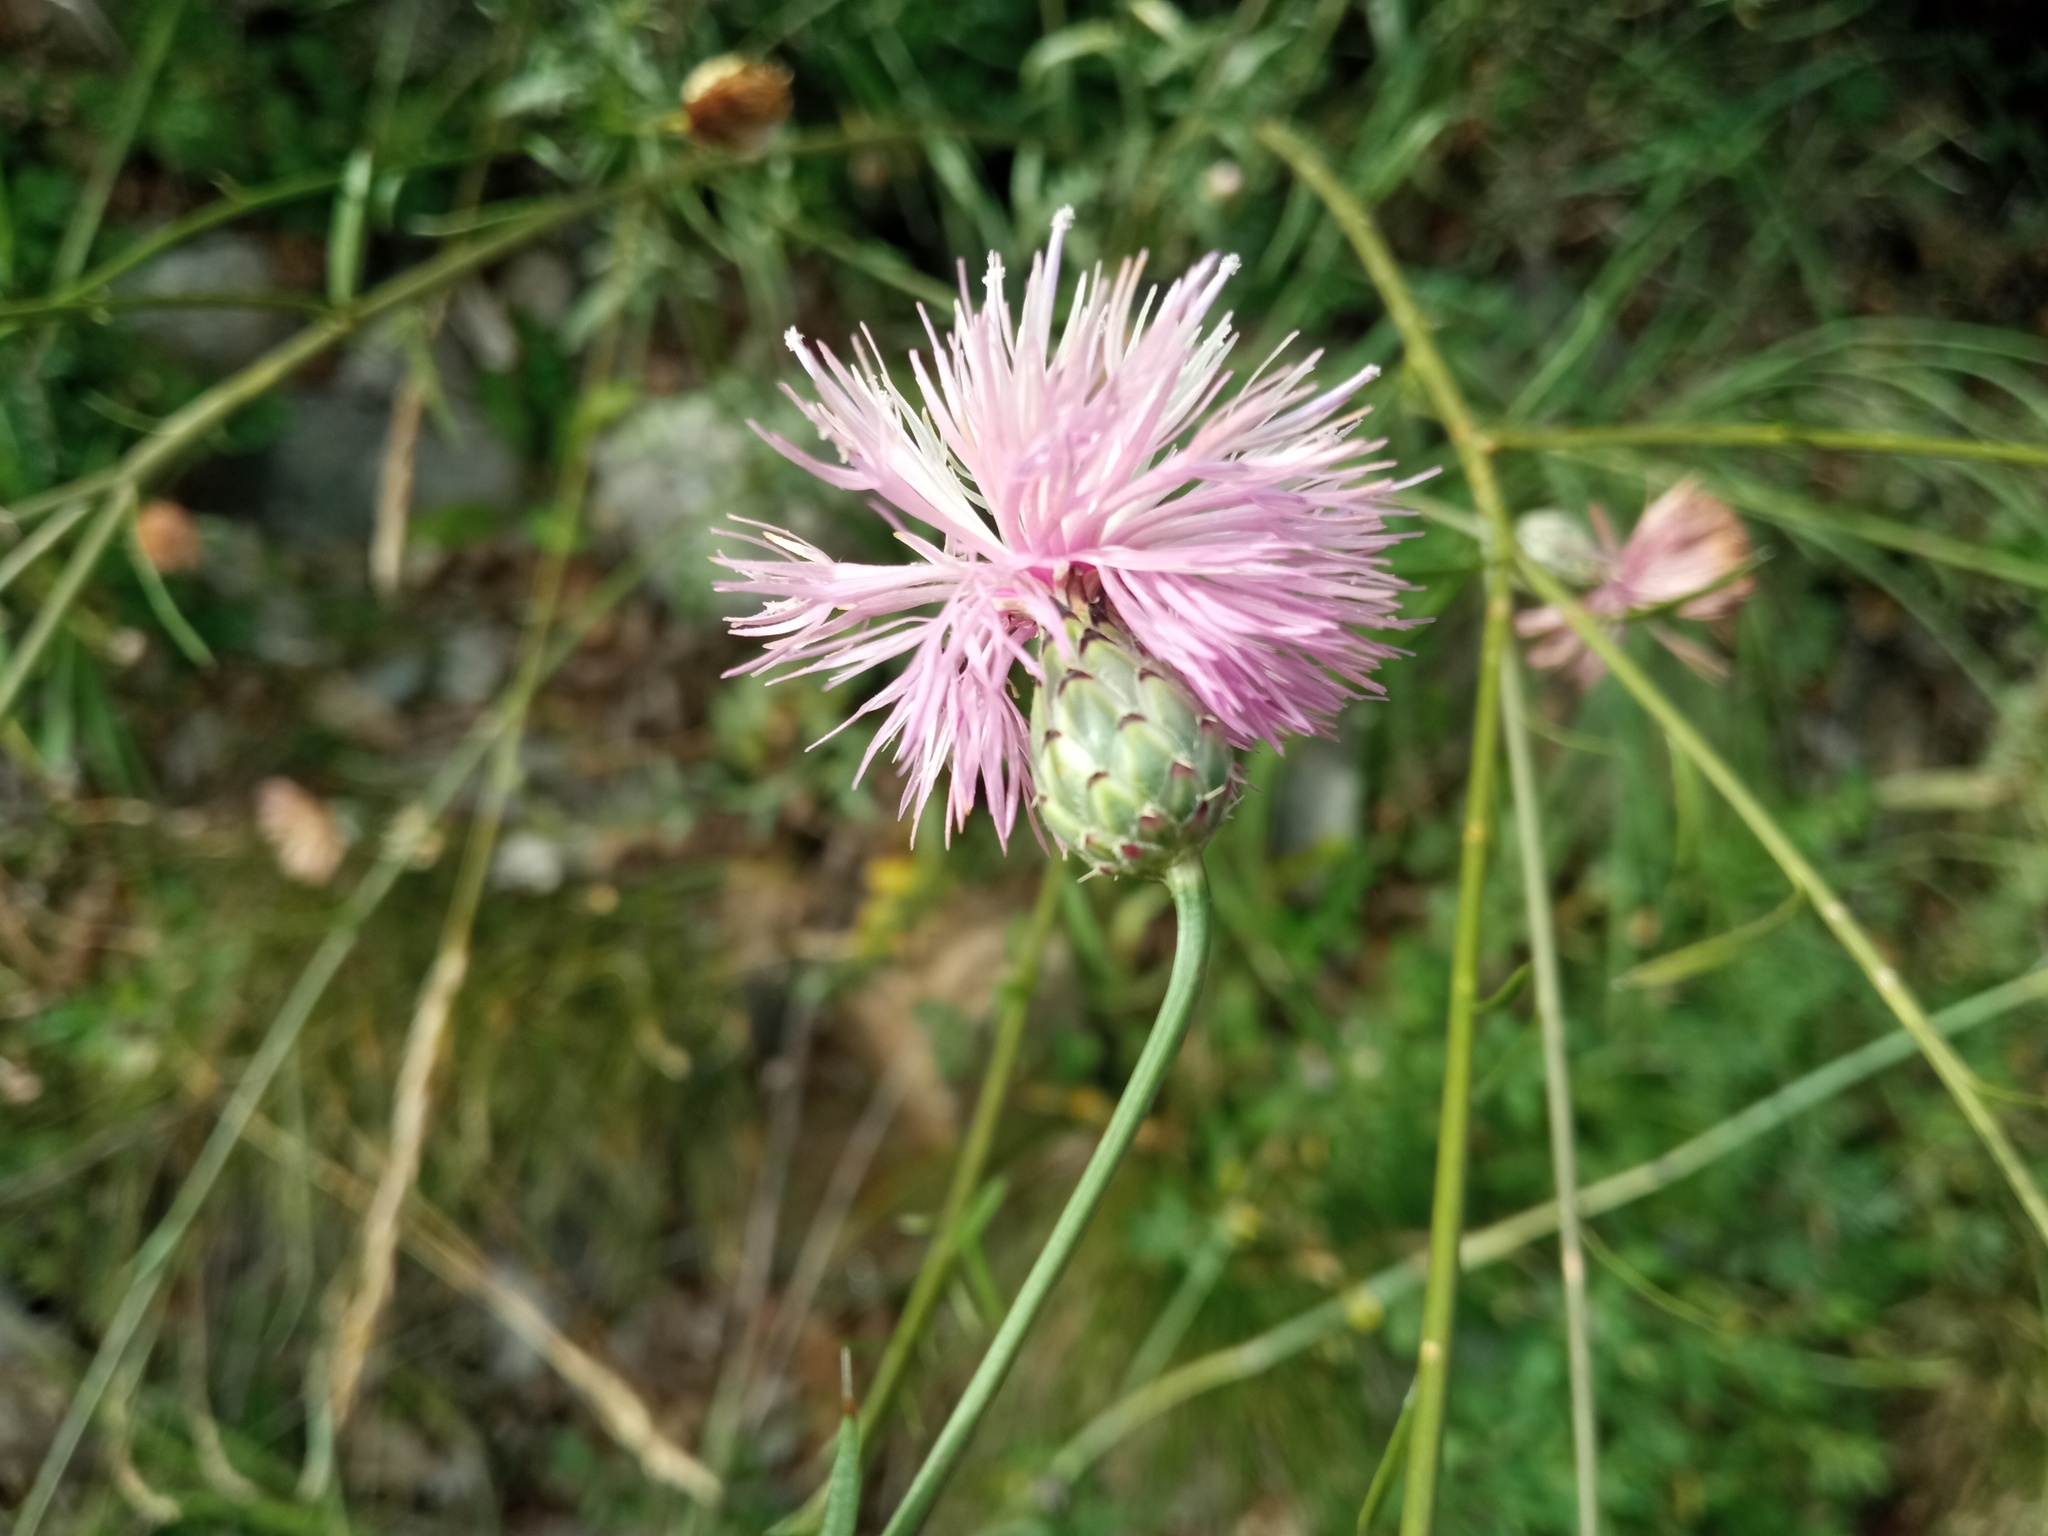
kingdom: Plantae
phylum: Tracheophyta
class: Magnoliopsida
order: Asterales
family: Asteraceae
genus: Mantisalca
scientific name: Mantisalca salmantica
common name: Dagger flower
